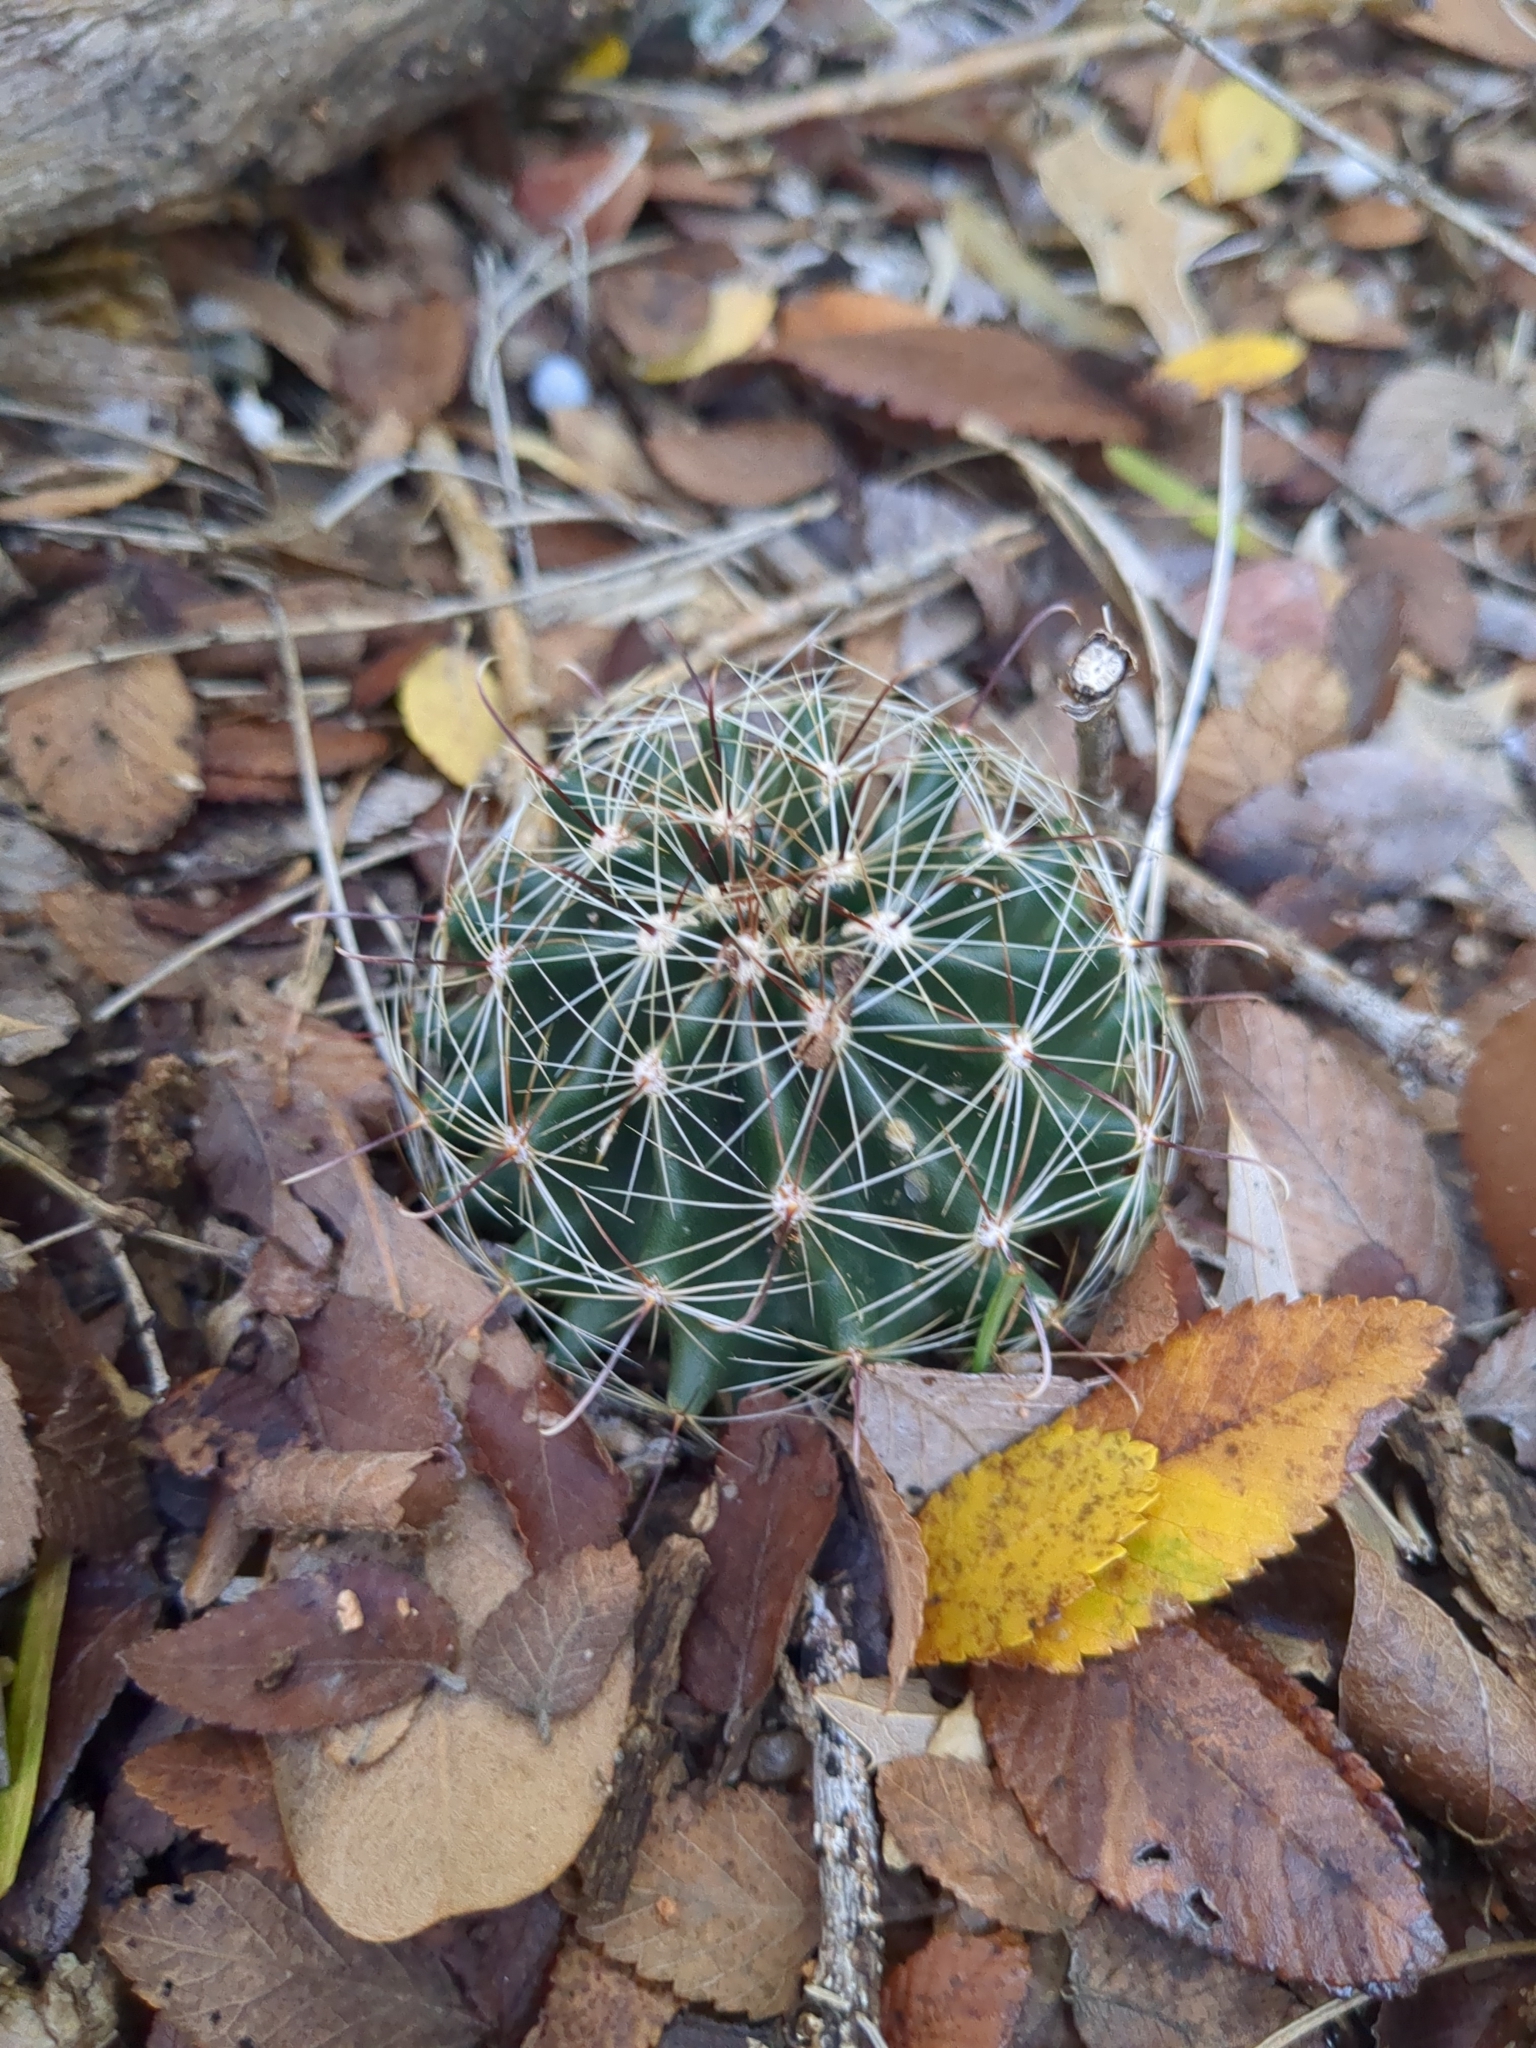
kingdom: Plantae
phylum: Tracheophyta
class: Magnoliopsida
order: Caryophyllales
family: Cactaceae
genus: Thelocactus
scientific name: Thelocactus setispinus
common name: Miniature barrel cactus
